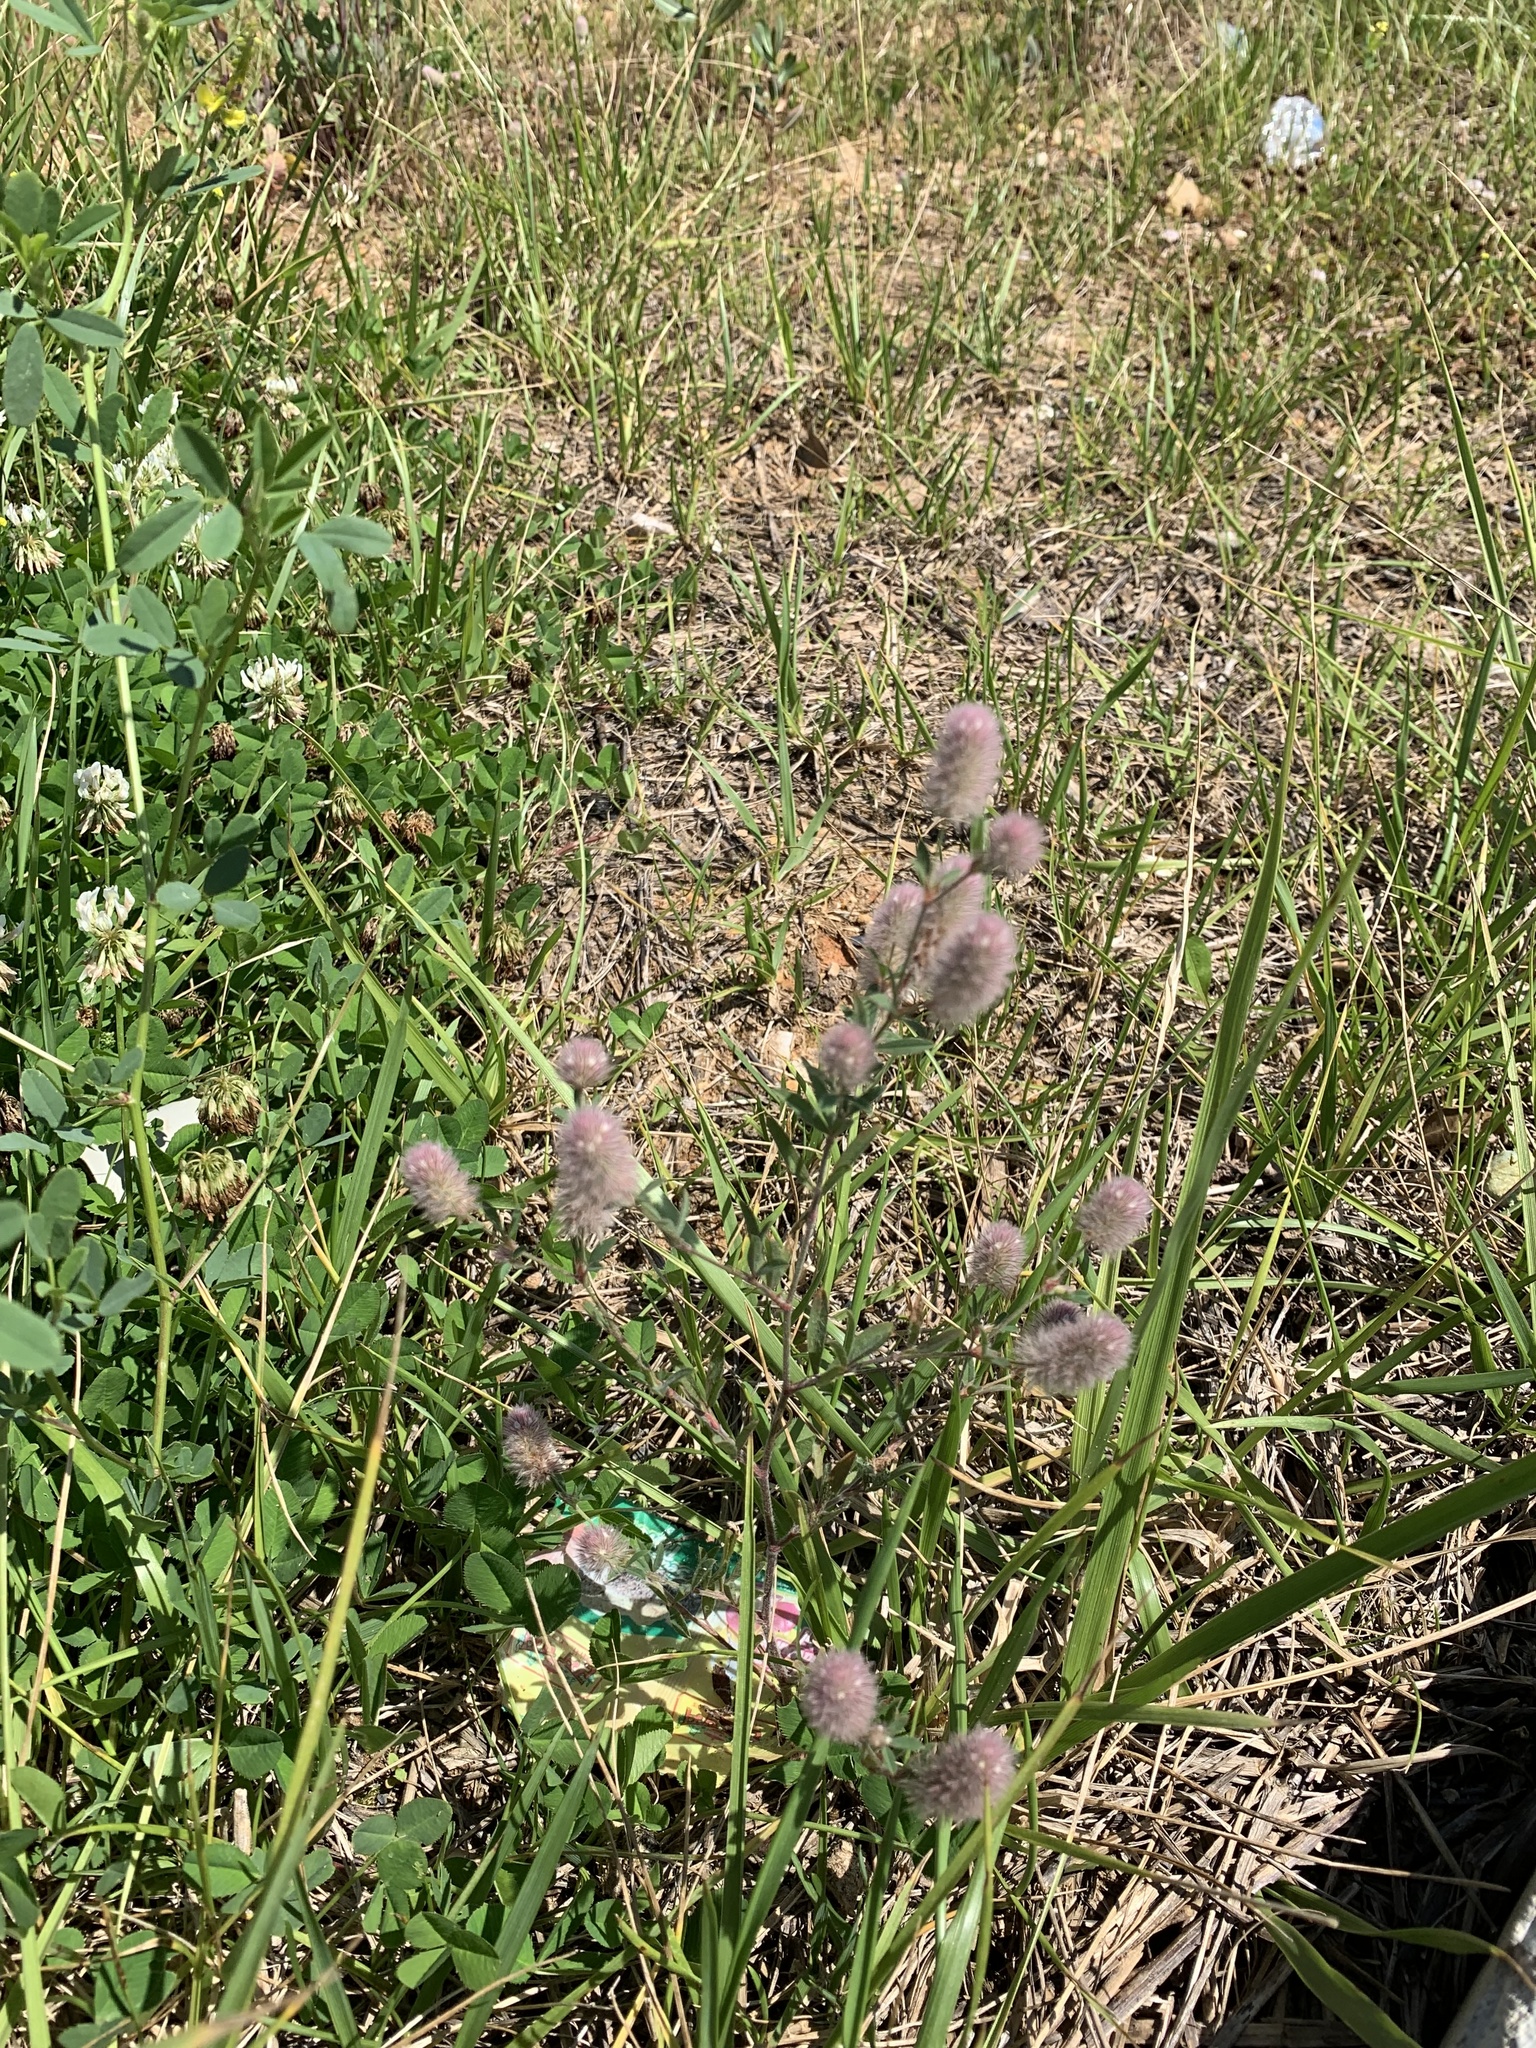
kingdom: Plantae
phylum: Tracheophyta
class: Magnoliopsida
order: Fabales
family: Fabaceae
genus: Trifolium
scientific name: Trifolium arvense
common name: Hare's-foot clover
